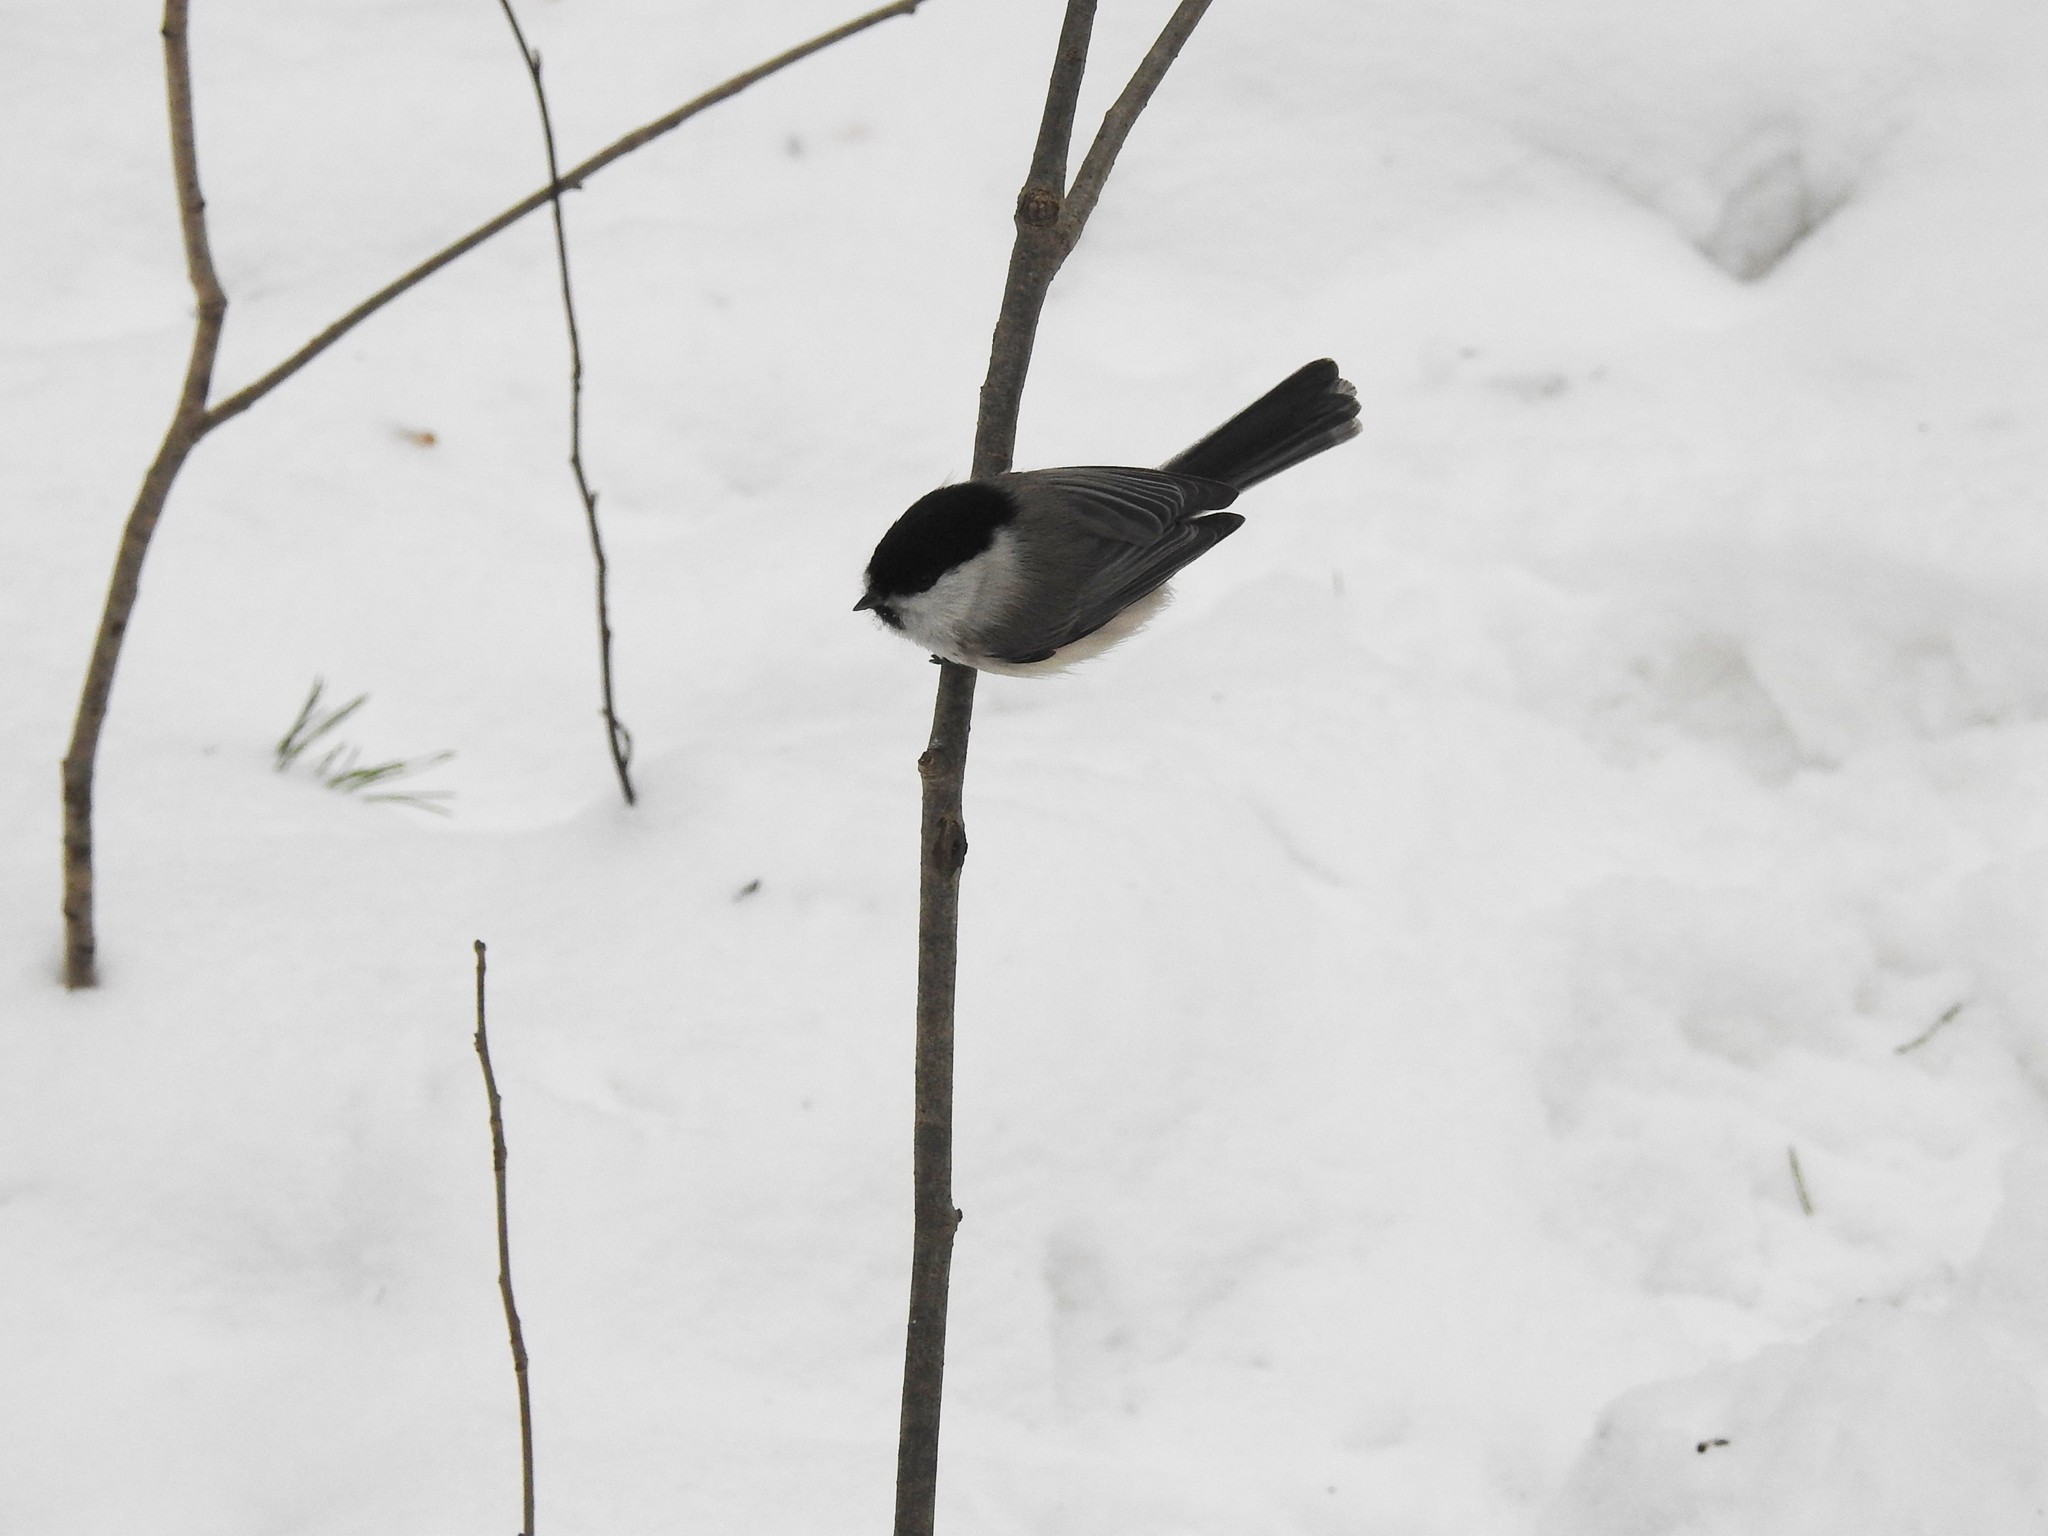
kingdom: Animalia
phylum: Chordata
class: Aves
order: Passeriformes
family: Paridae
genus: Poecile
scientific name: Poecile montanus
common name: Willow tit
